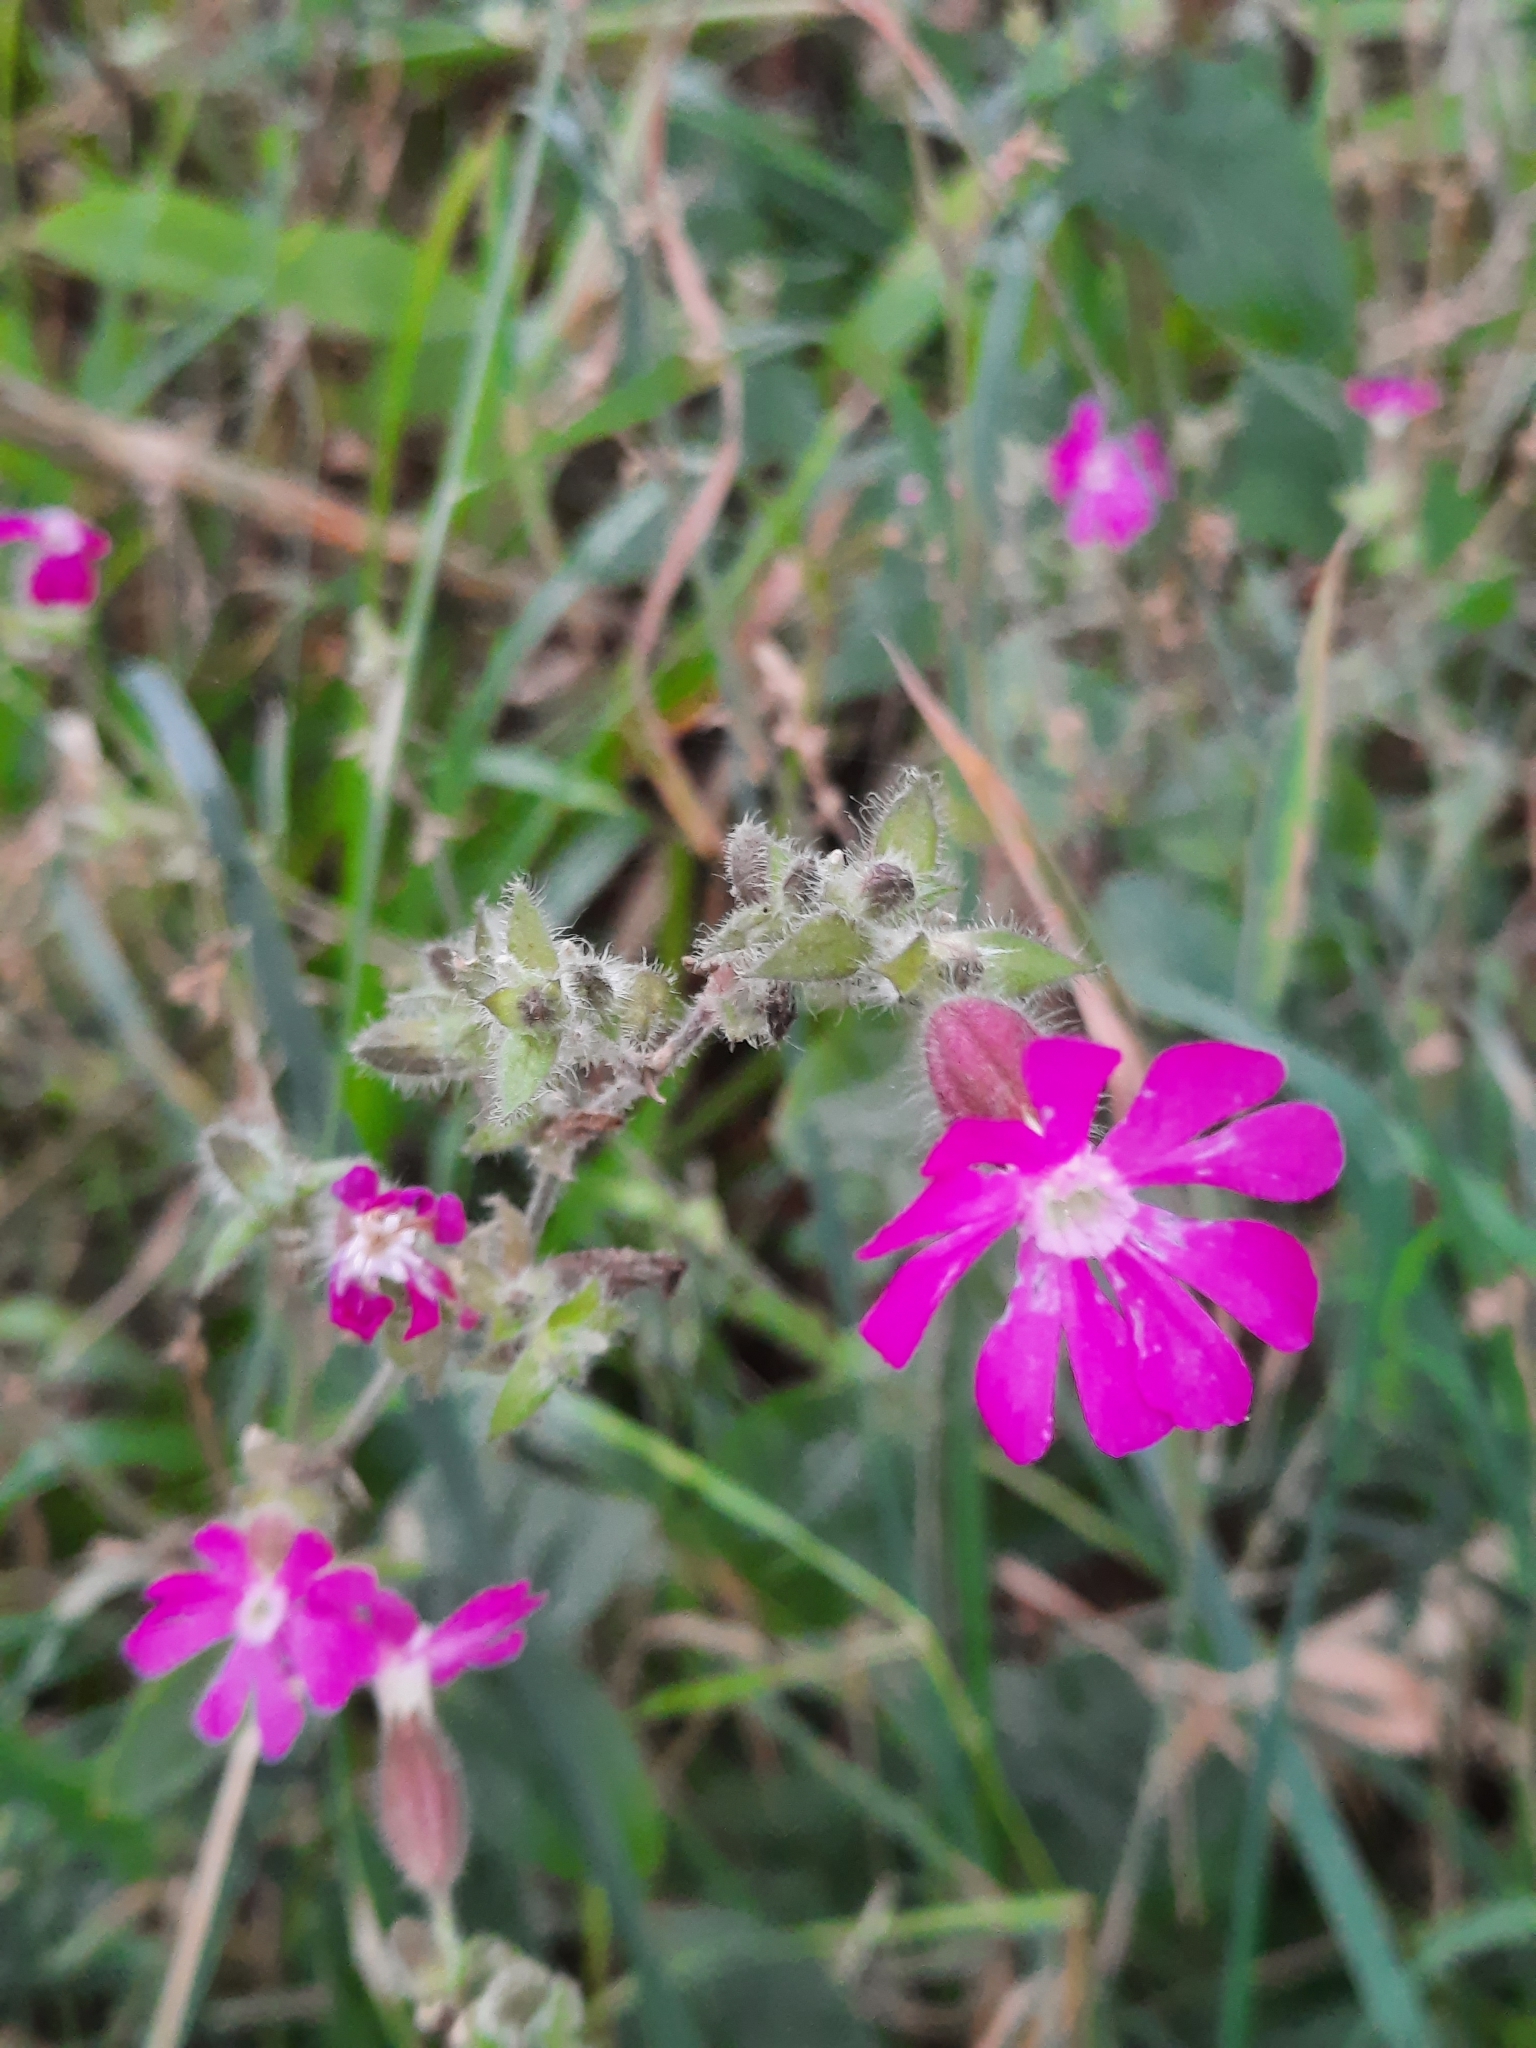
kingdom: Plantae
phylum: Tracheophyta
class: Magnoliopsida
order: Caryophyllales
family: Caryophyllaceae
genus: Silene
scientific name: Silene dioica
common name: Red campion
